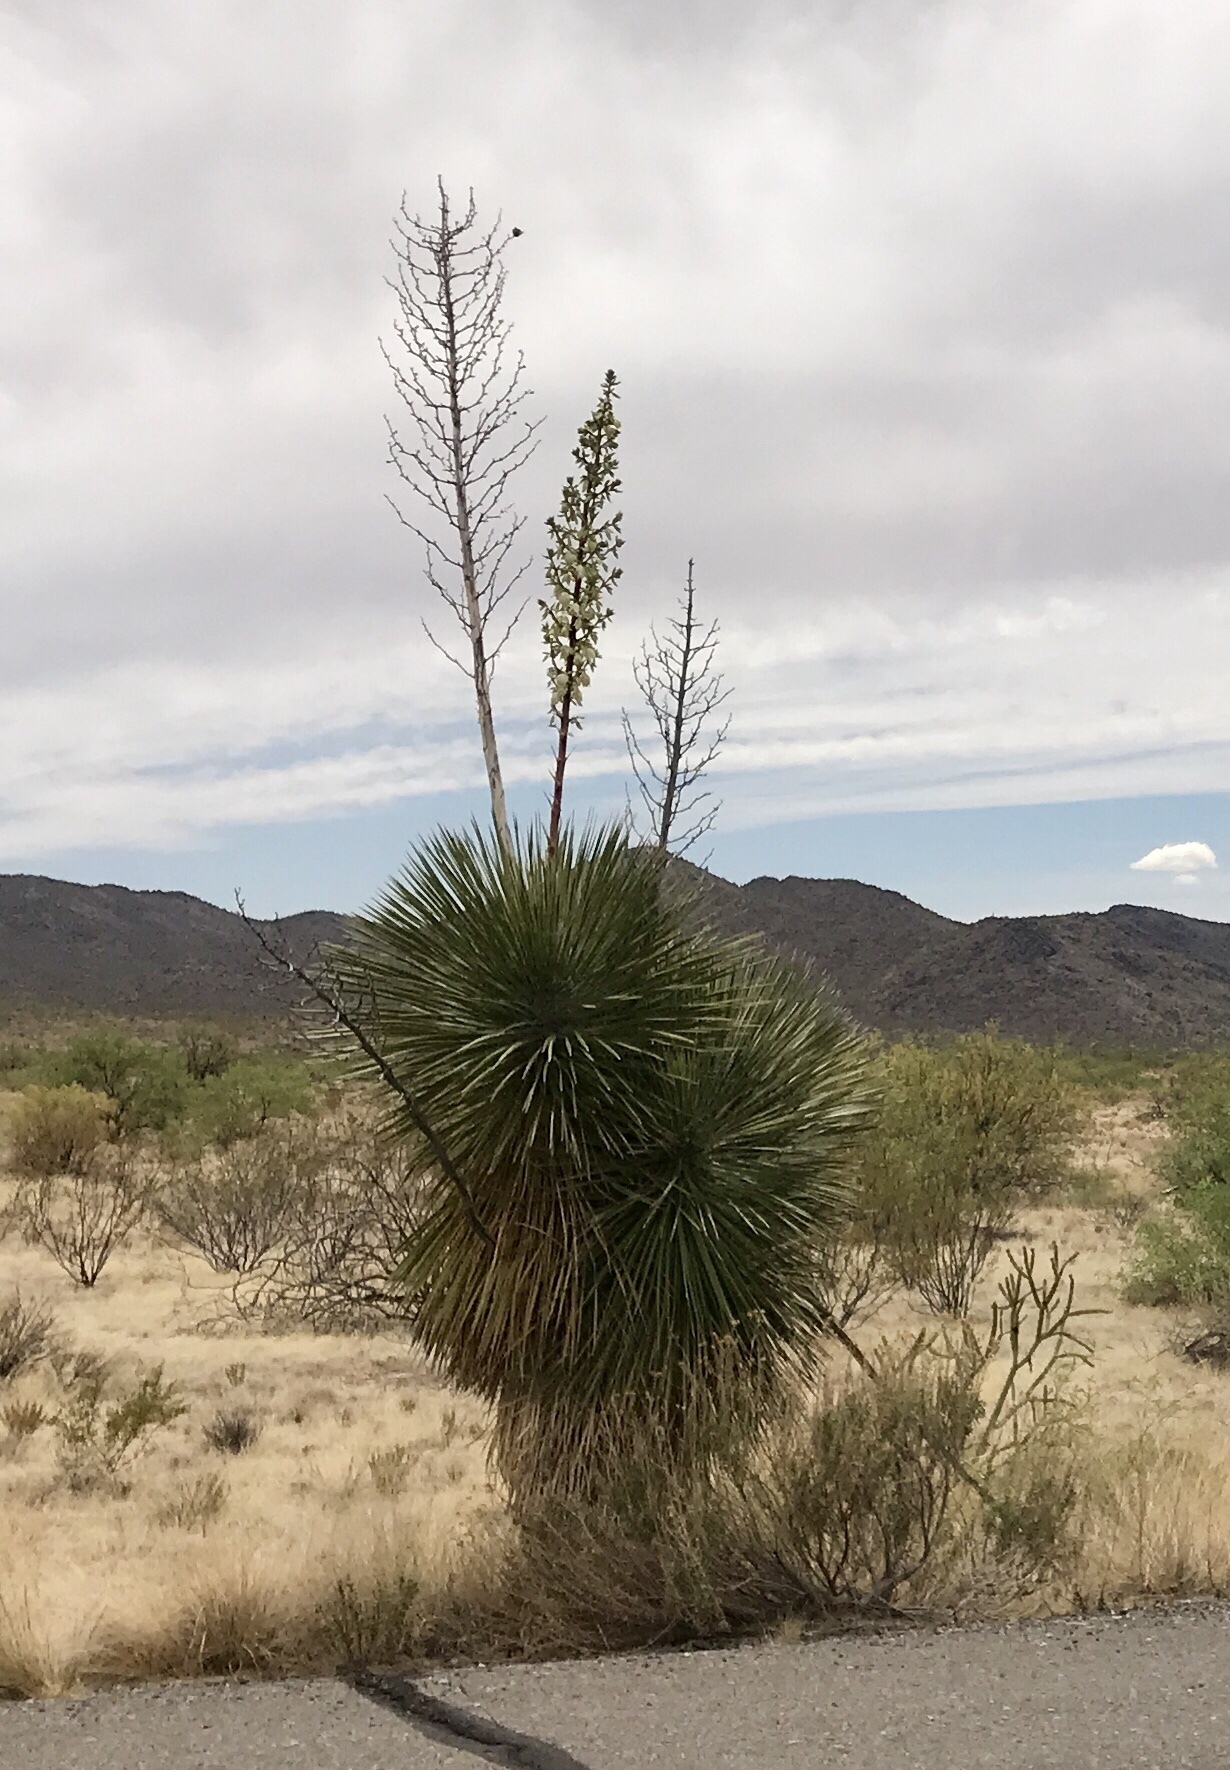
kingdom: Plantae
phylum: Tracheophyta
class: Liliopsida
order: Asparagales
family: Asparagaceae
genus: Yucca
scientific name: Yucca elata
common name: Palmella
